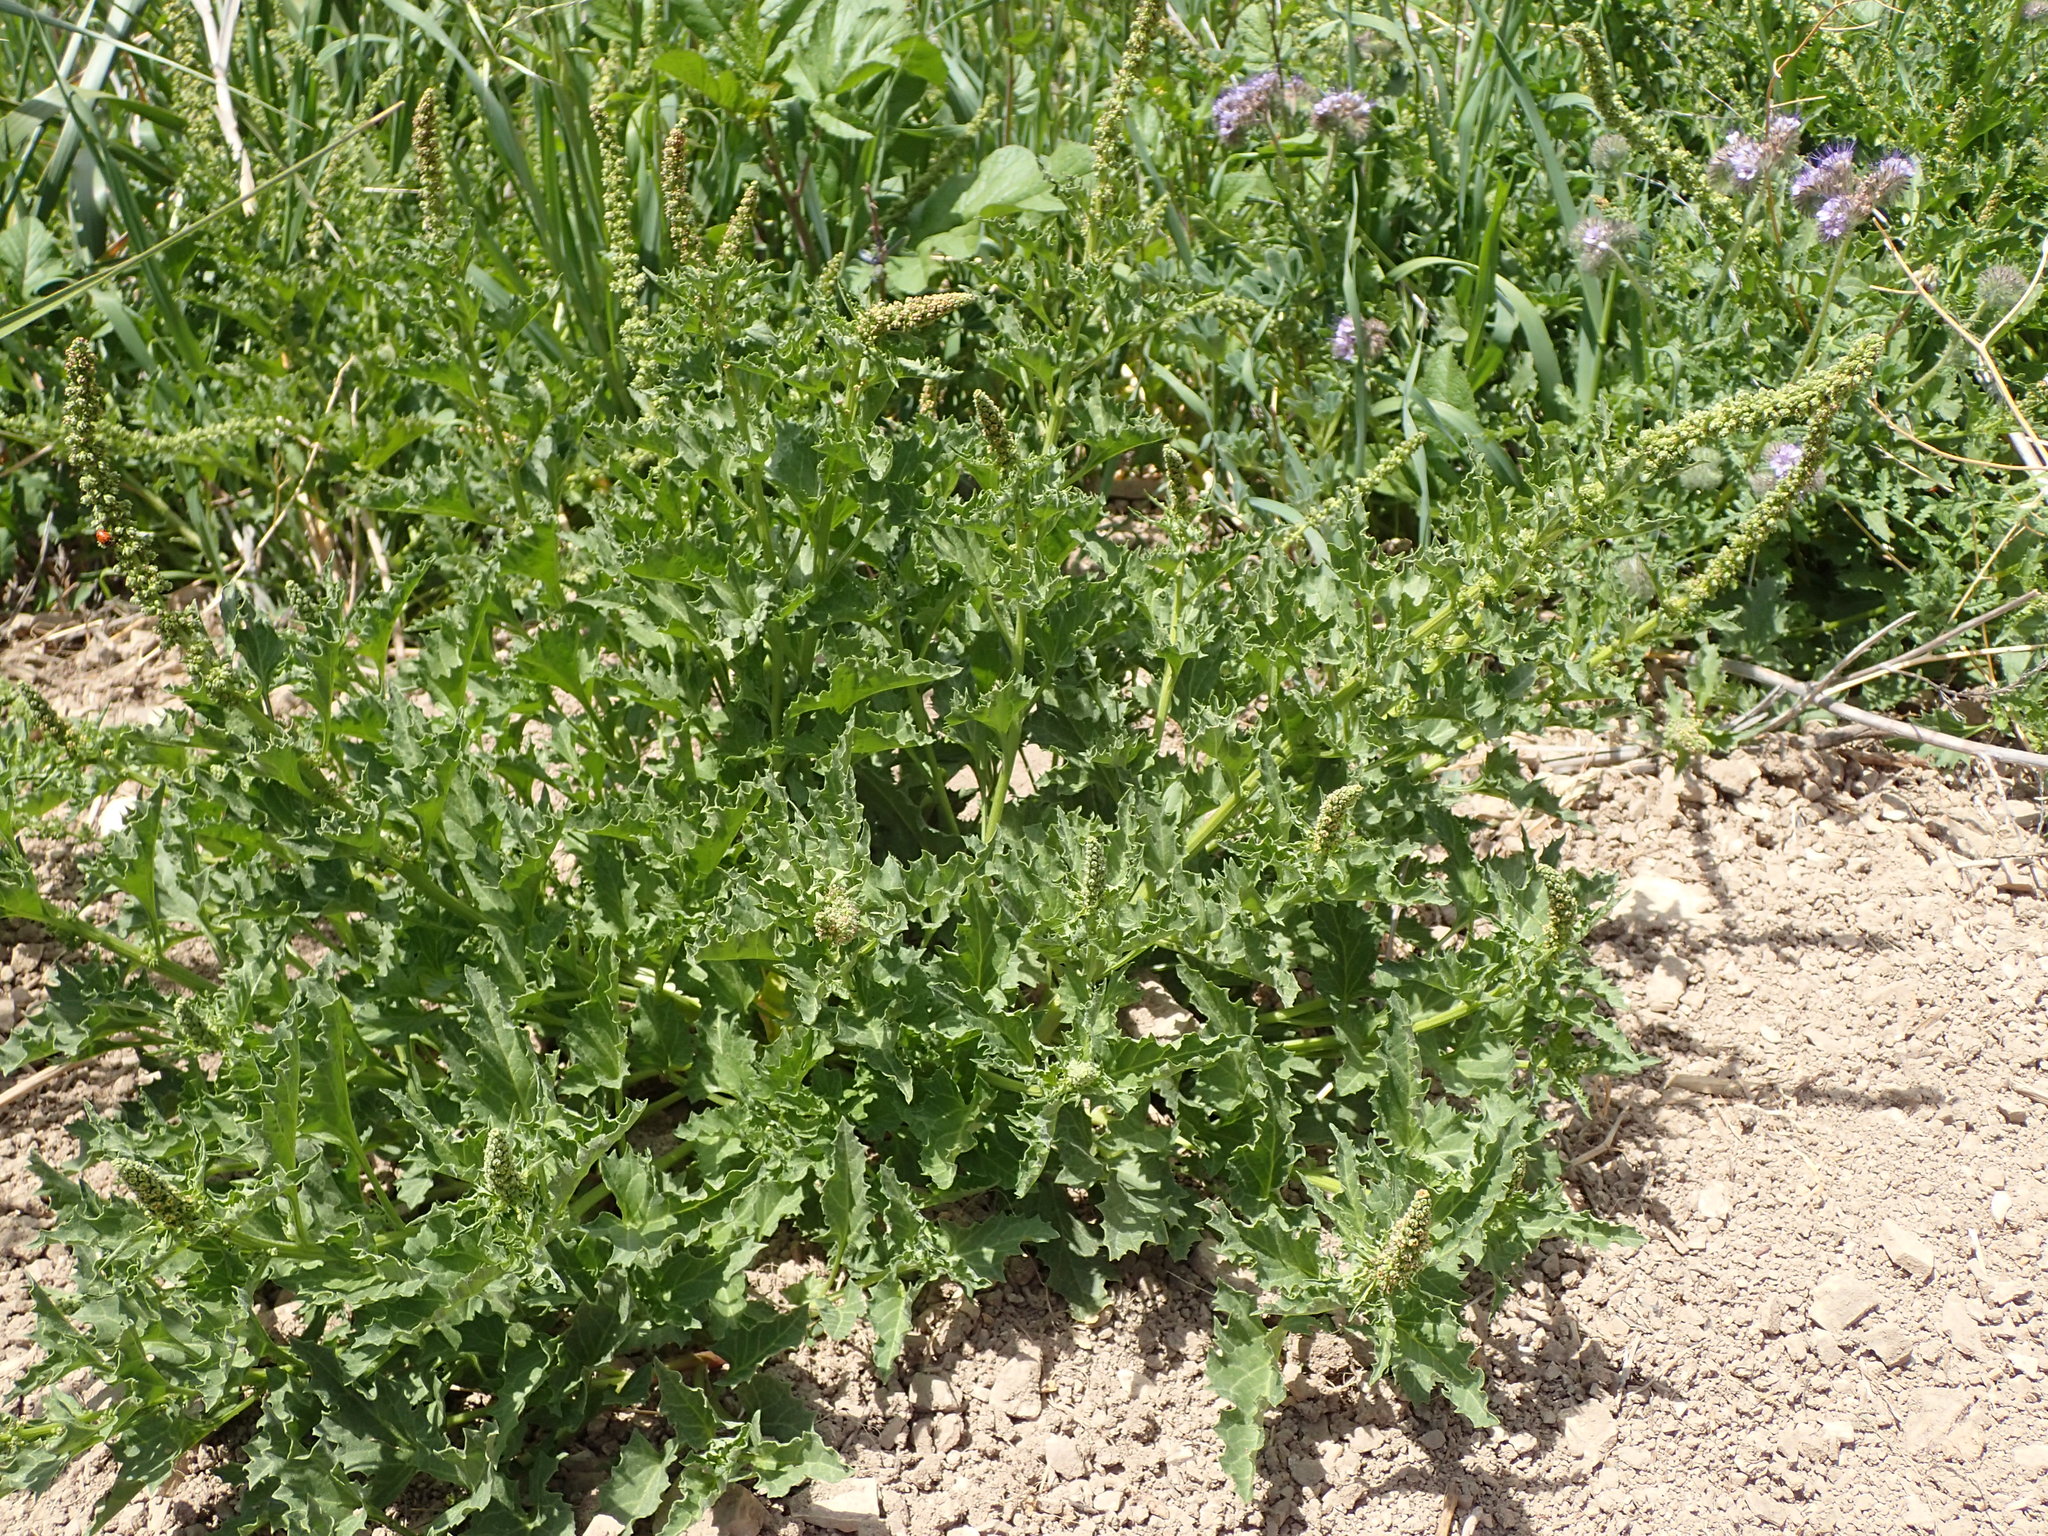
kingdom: Plantae
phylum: Tracheophyta
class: Magnoliopsida
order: Caryophyllales
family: Amaranthaceae
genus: Blitum
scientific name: Blitum californicum
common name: California goosefoot
